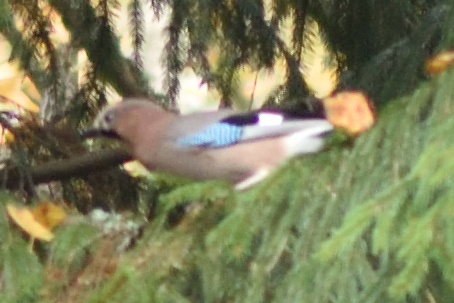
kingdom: Animalia
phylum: Chordata
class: Aves
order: Passeriformes
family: Corvidae
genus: Garrulus
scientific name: Garrulus glandarius
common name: Eurasian jay
